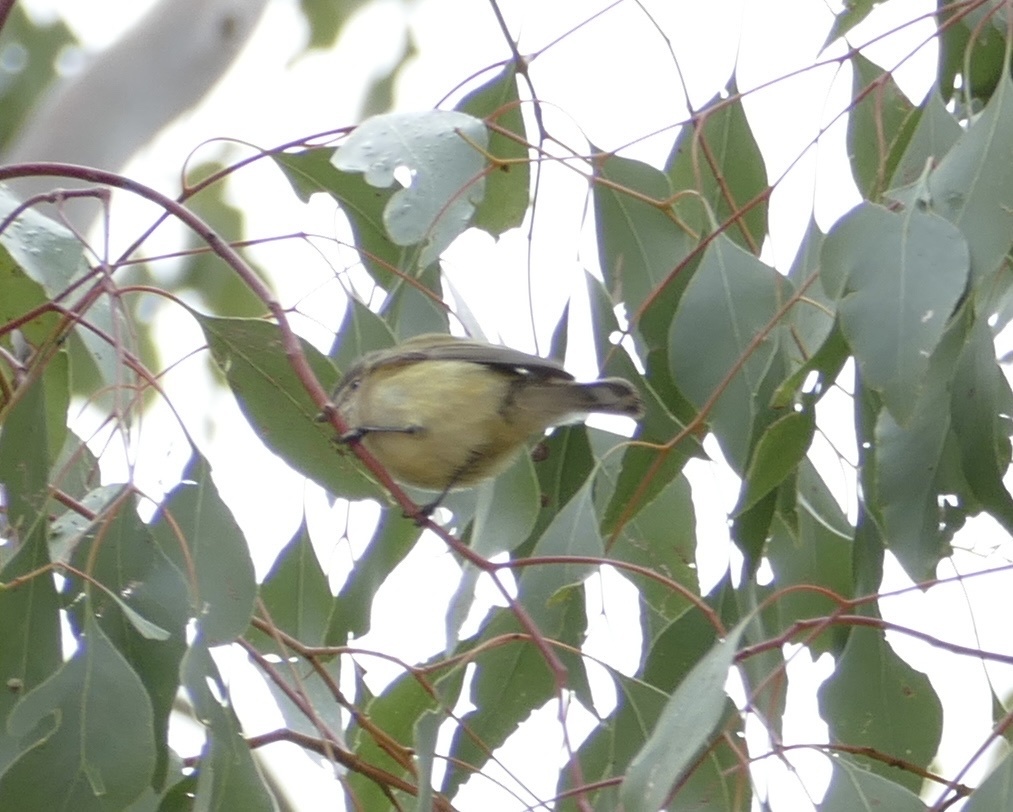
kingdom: Animalia
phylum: Chordata
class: Aves
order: Passeriformes
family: Acanthizidae
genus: Smicrornis
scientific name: Smicrornis brevirostris
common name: Weebill
